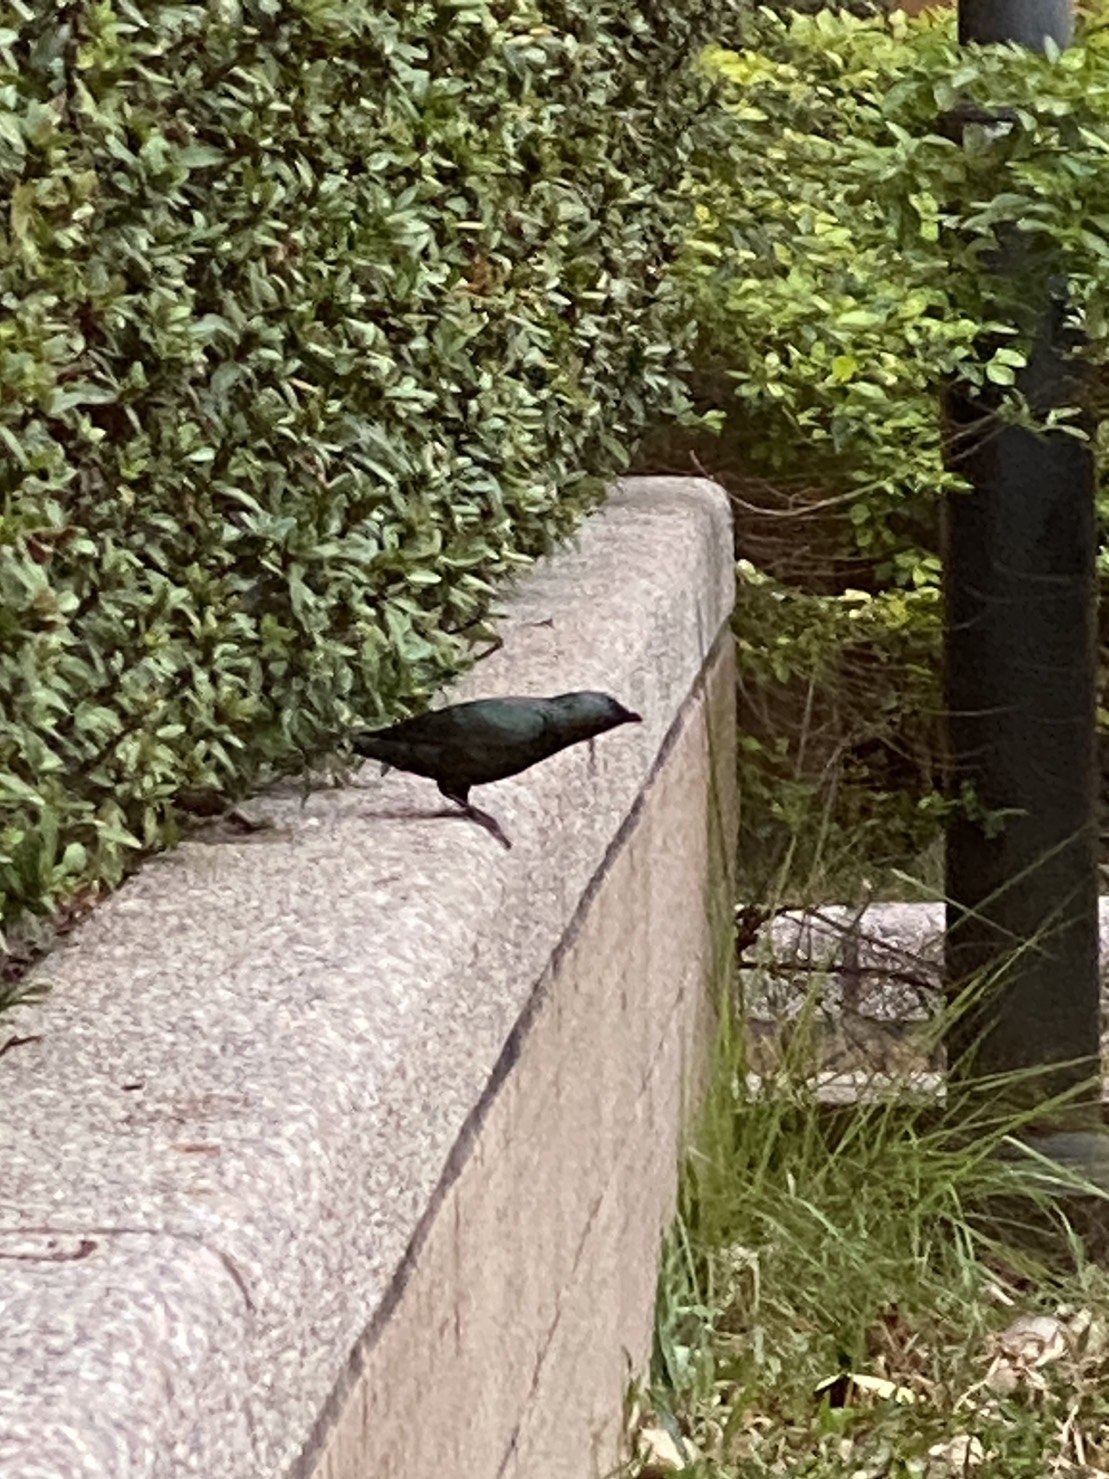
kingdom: Animalia
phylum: Chordata
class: Aves
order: Passeriformes
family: Sturnidae
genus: Aplonis
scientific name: Aplonis panayensis
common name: Asian glossy starling
